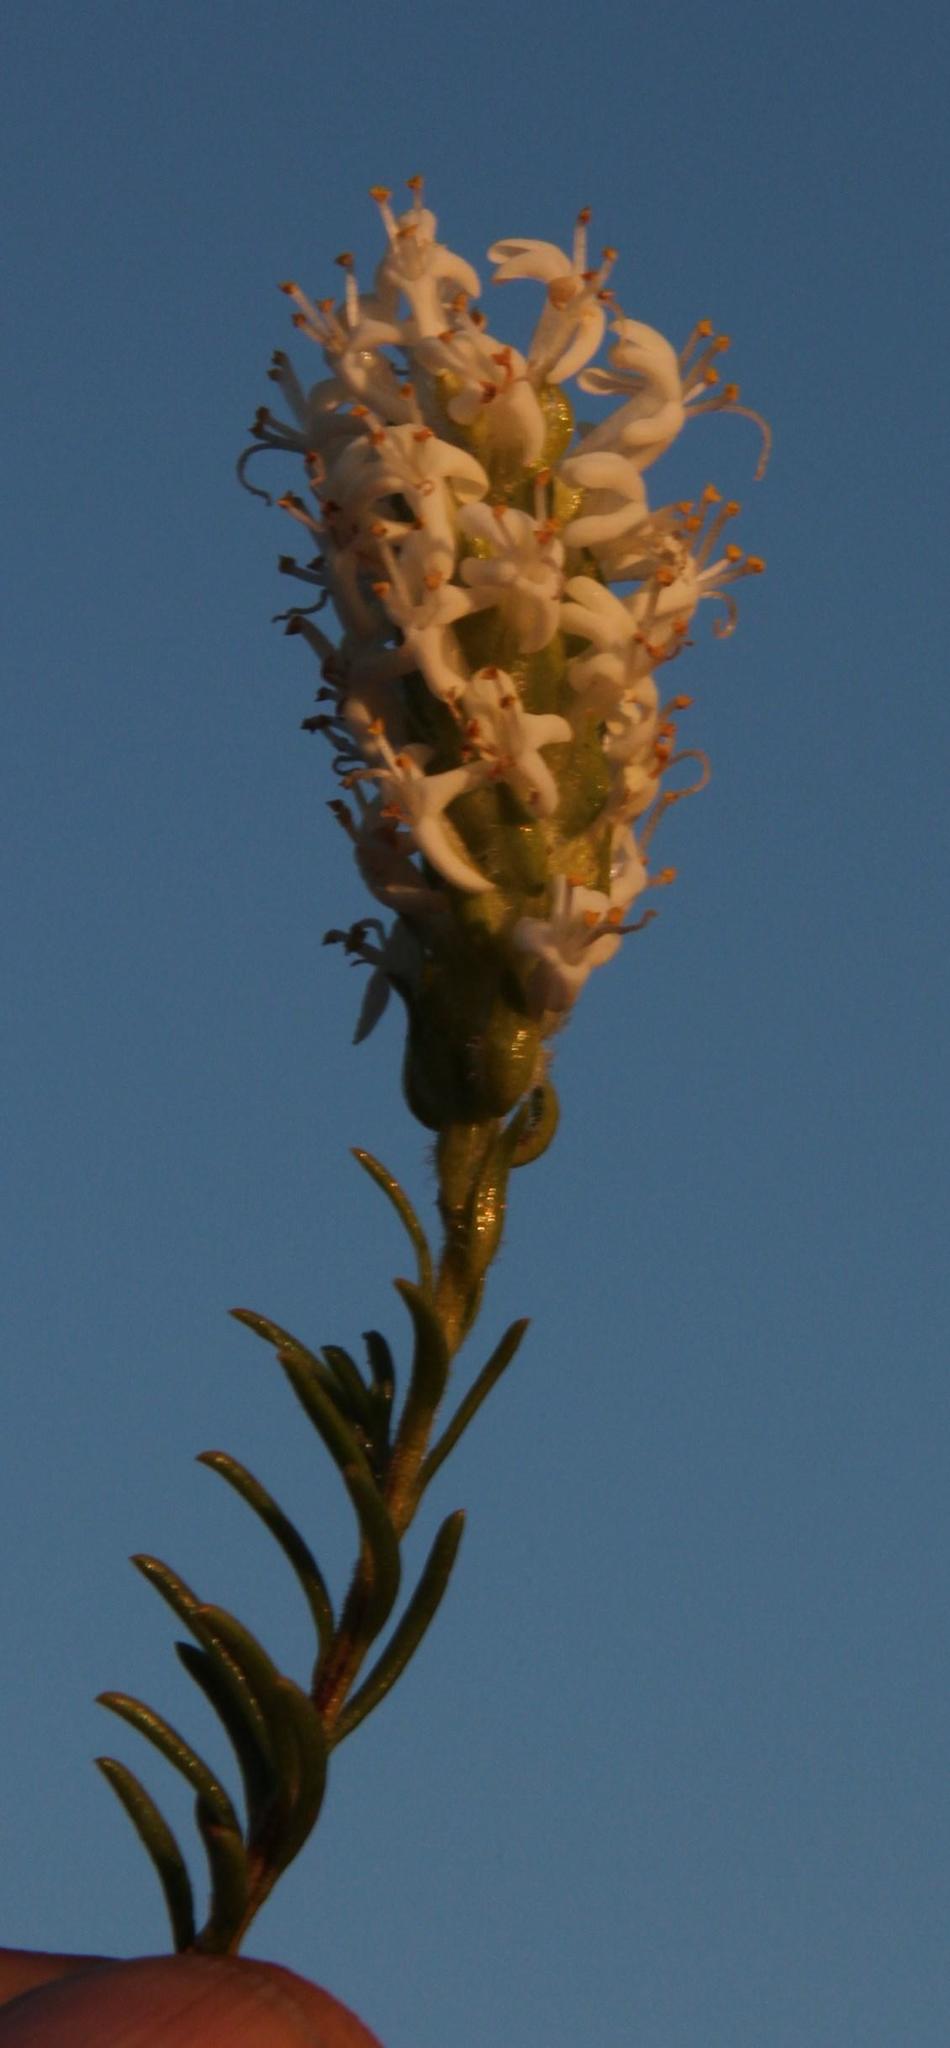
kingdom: Plantae
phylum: Tracheophyta
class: Magnoliopsida
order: Lamiales
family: Scrophulariaceae
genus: Selago
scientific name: Selago eckloniana
